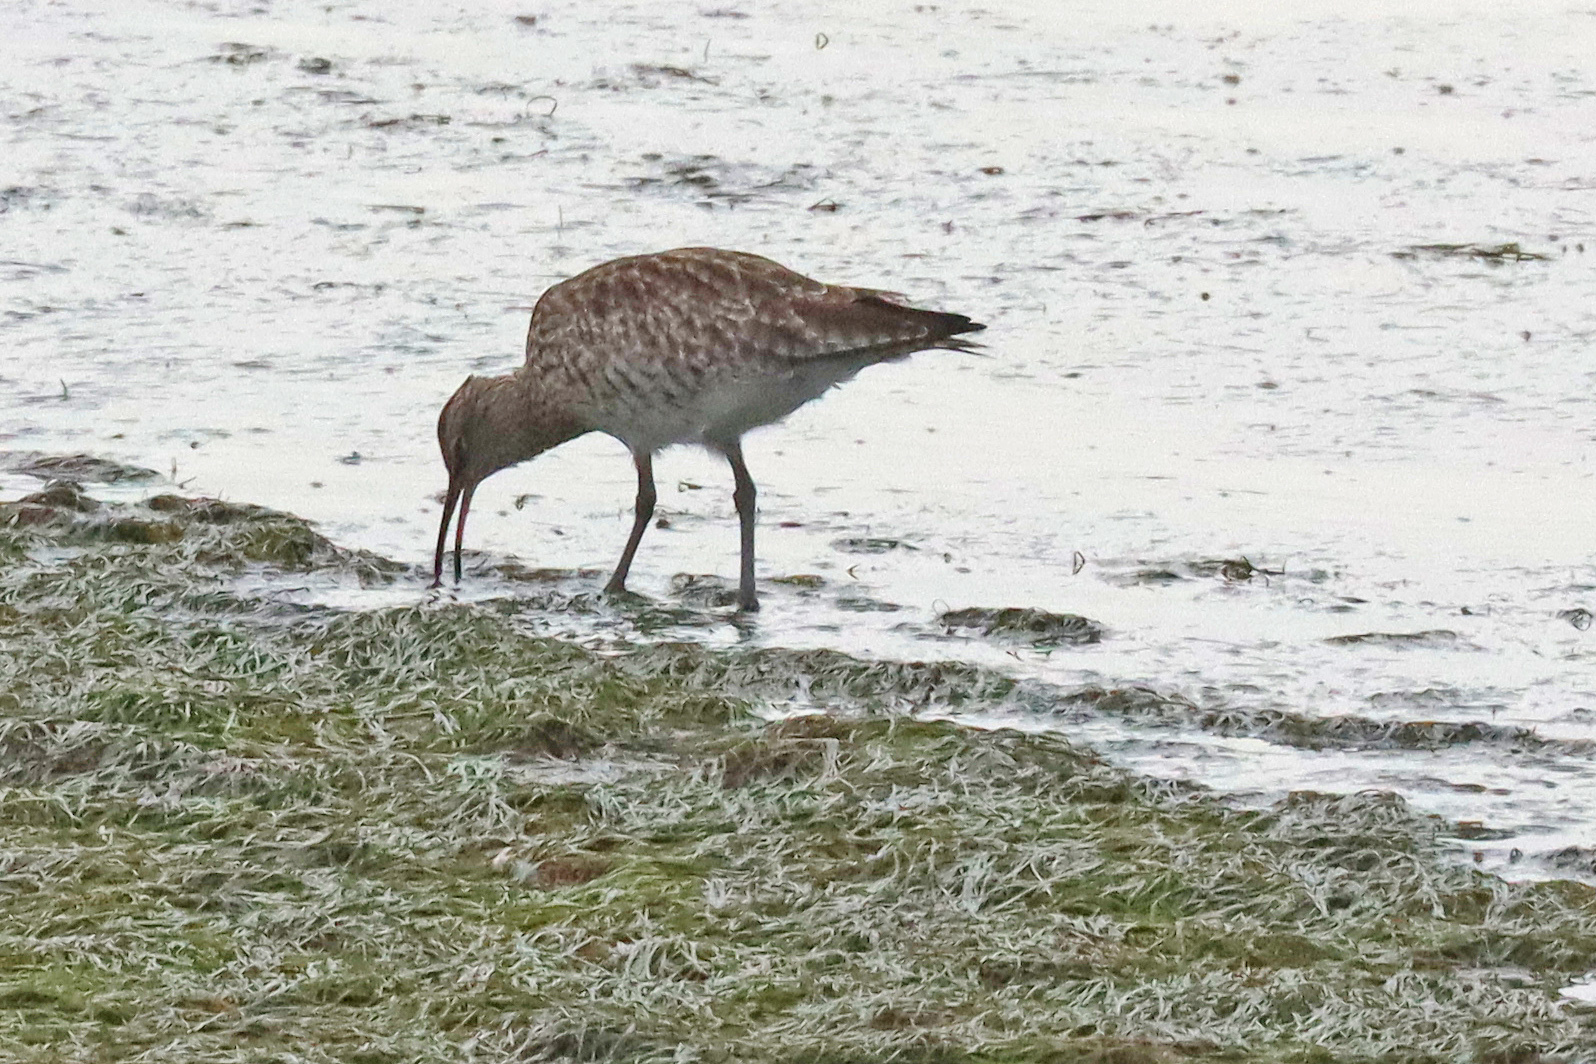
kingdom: Animalia
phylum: Chordata
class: Aves
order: Charadriiformes
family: Scolopacidae
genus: Numenius
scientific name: Numenius phaeopus
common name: Whimbrel
